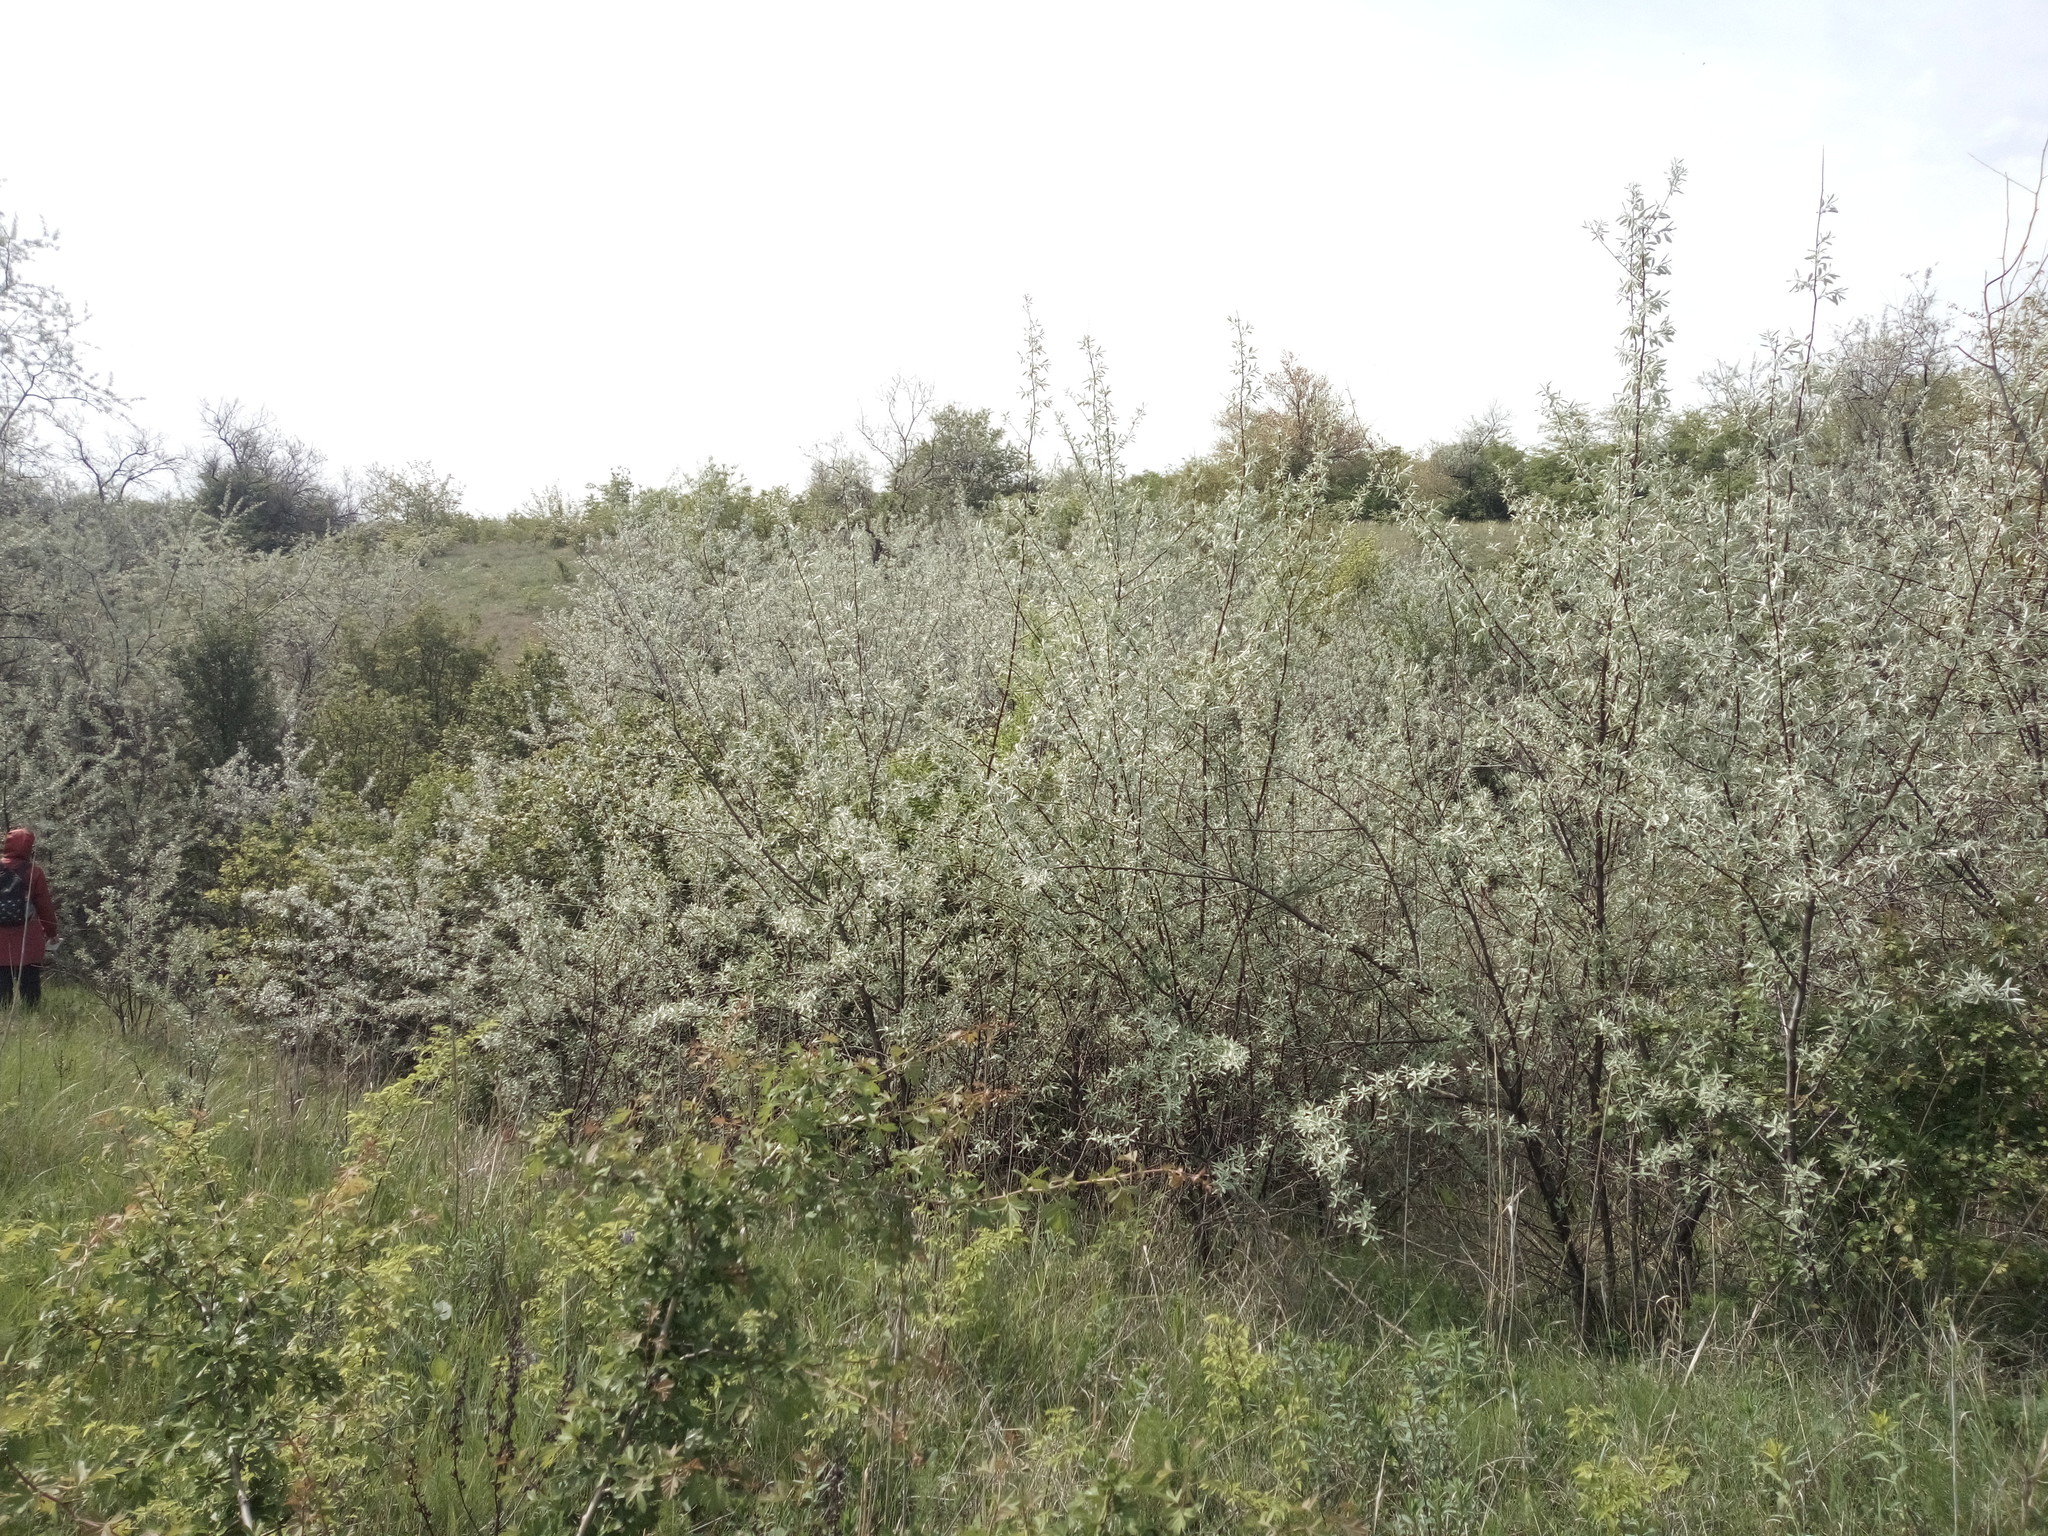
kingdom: Plantae
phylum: Tracheophyta
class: Magnoliopsida
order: Rosales
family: Elaeagnaceae
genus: Elaeagnus
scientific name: Elaeagnus angustifolia
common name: Russian olive
